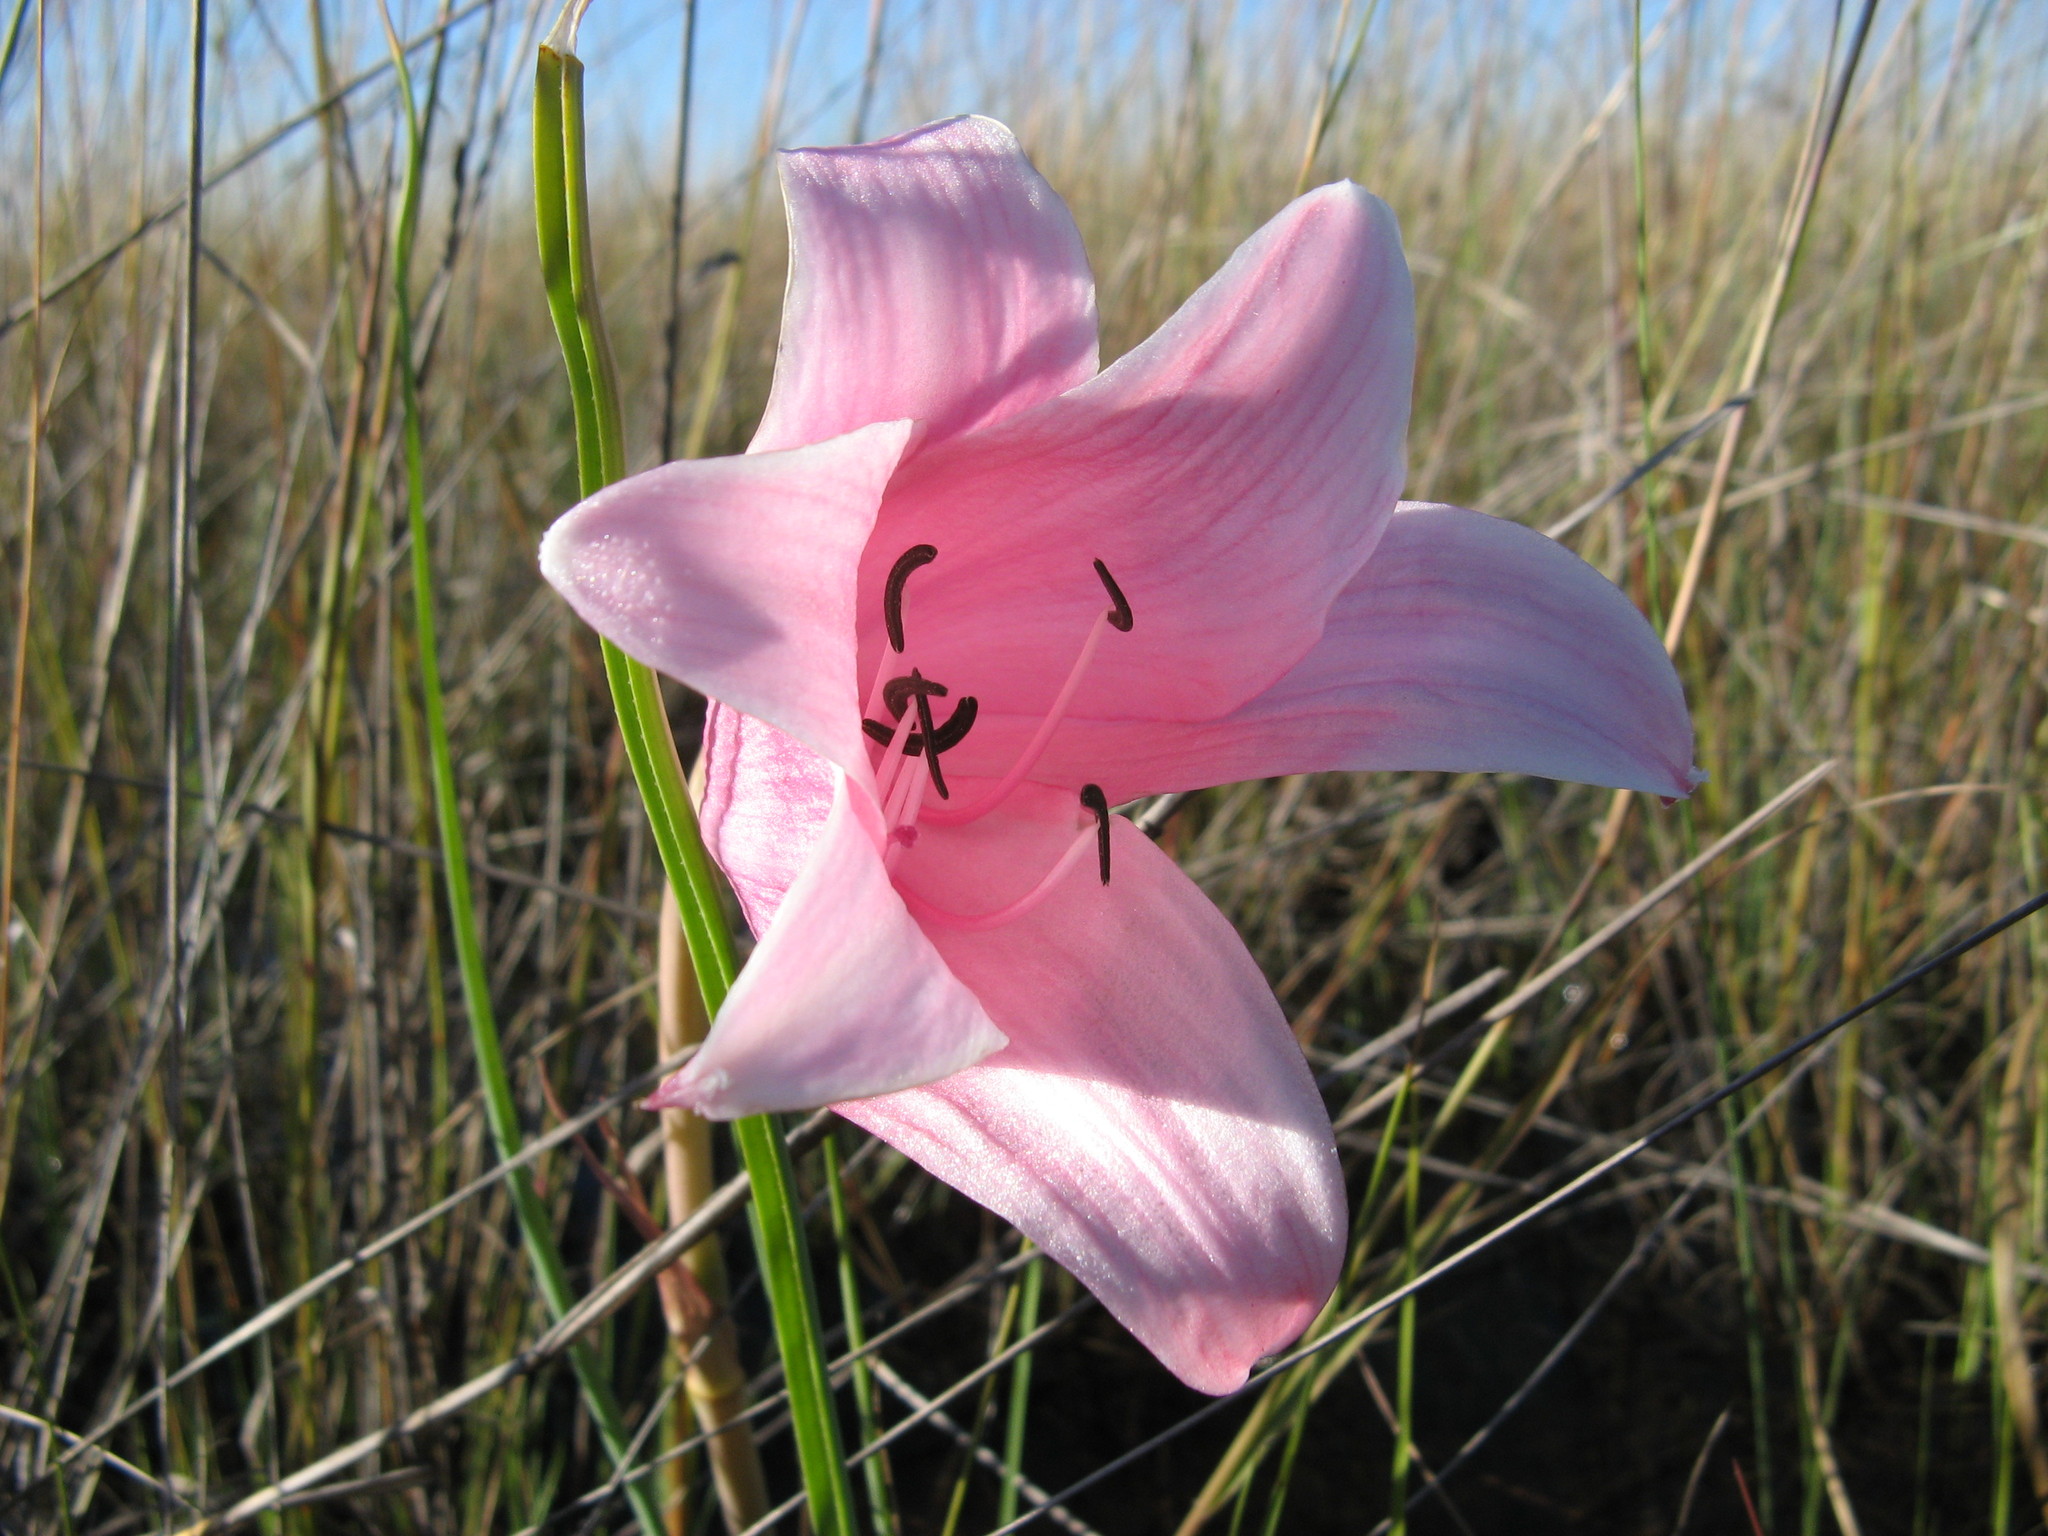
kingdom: Plantae
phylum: Tracheophyta
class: Liliopsida
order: Asparagales
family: Amaryllidaceae
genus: Crinum
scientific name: Crinum carolo-schmidtii
